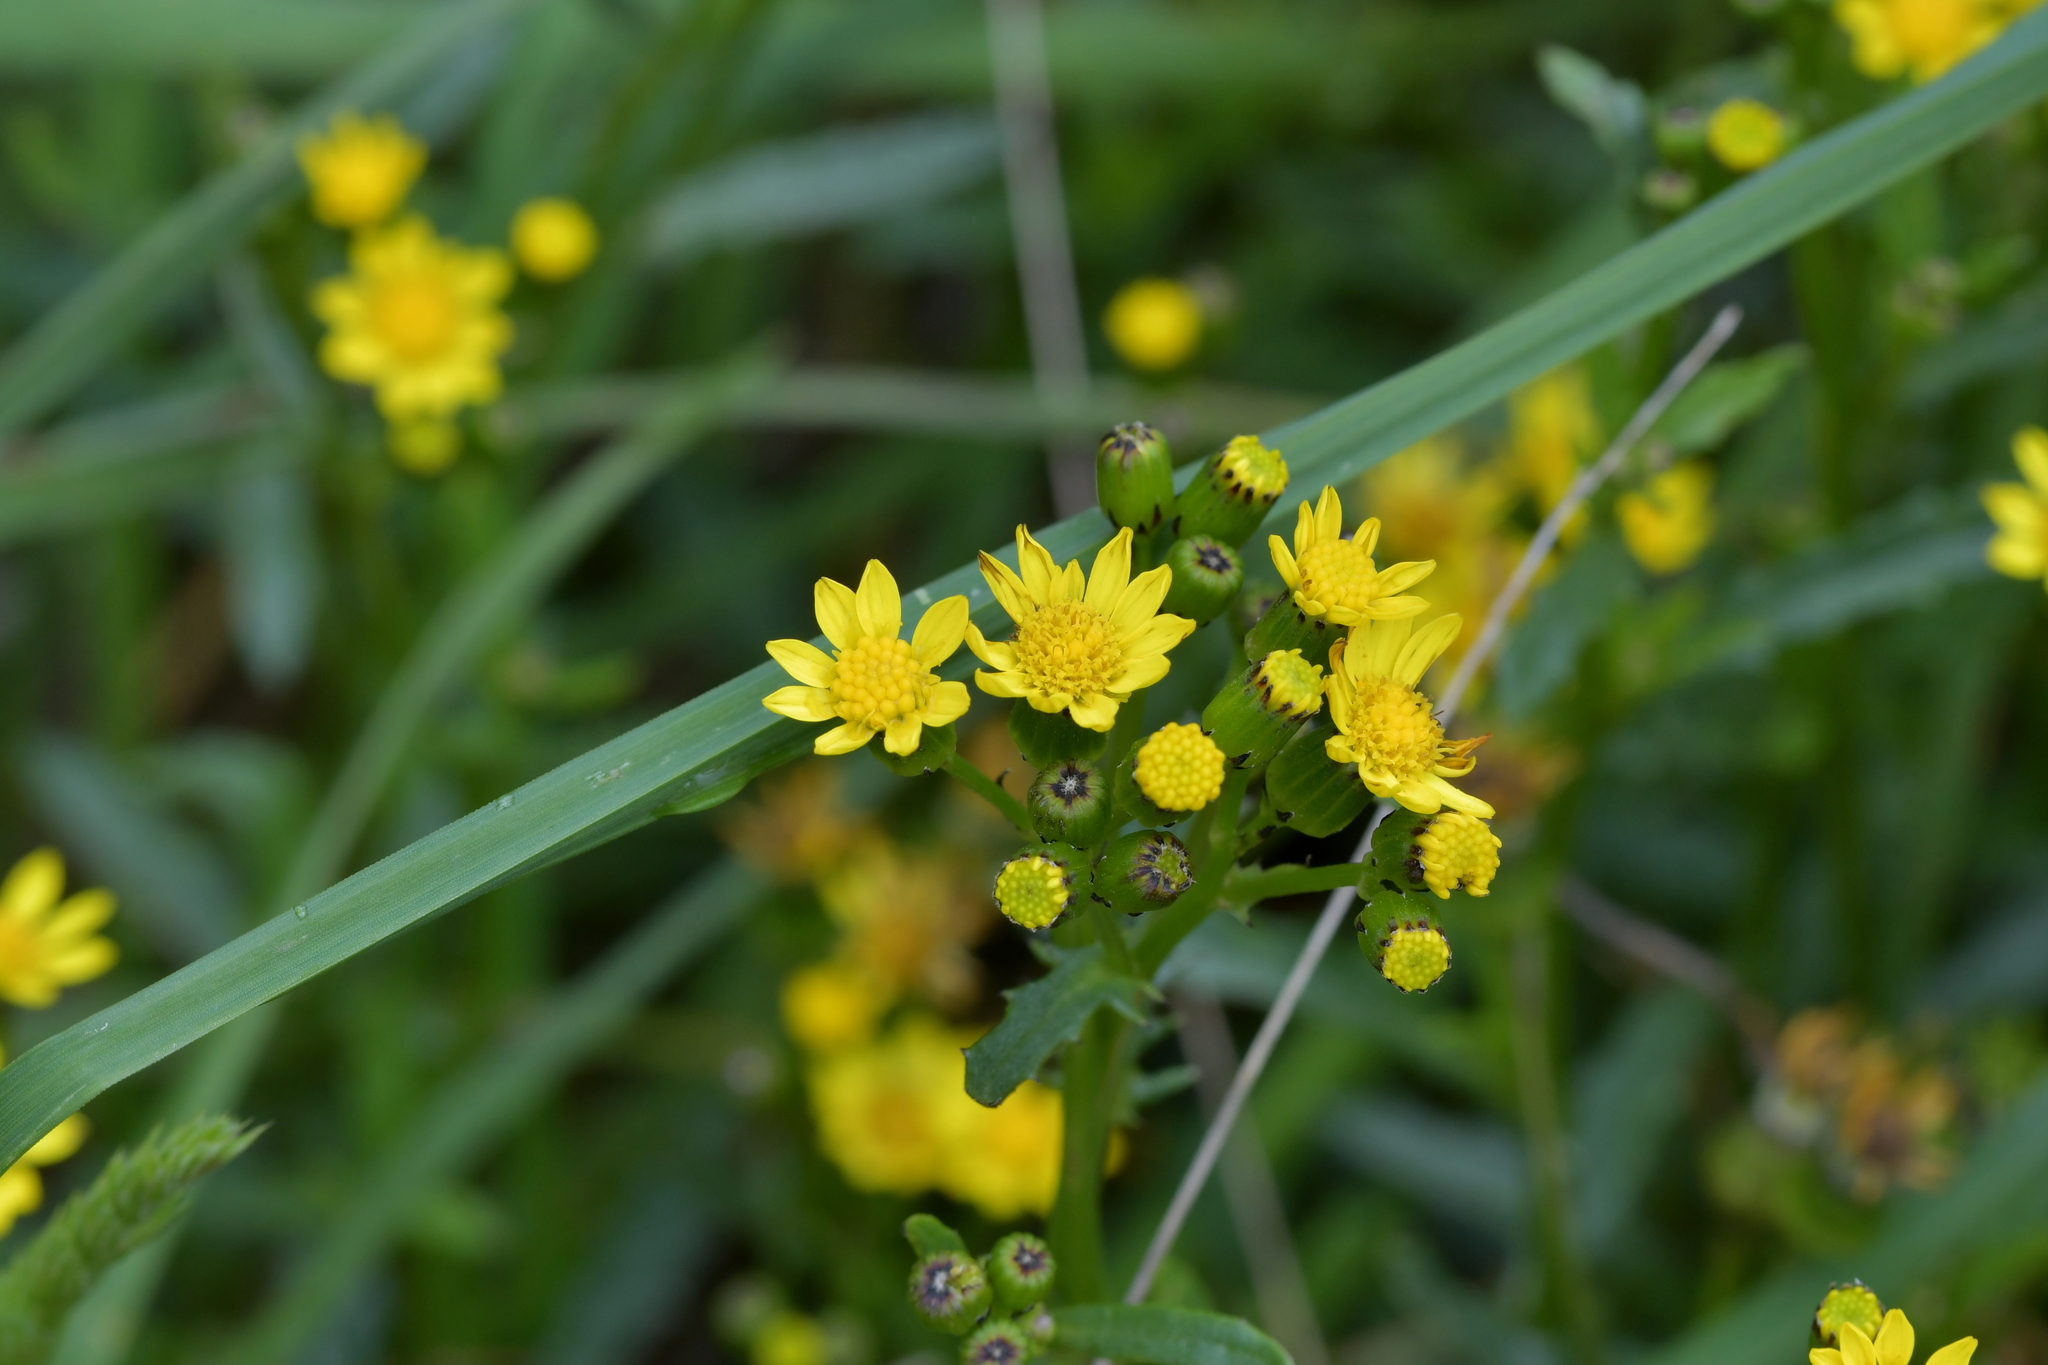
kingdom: Plantae
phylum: Tracheophyta
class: Magnoliopsida
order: Asterales
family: Asteraceae
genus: Senecio
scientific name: Senecio matatini
